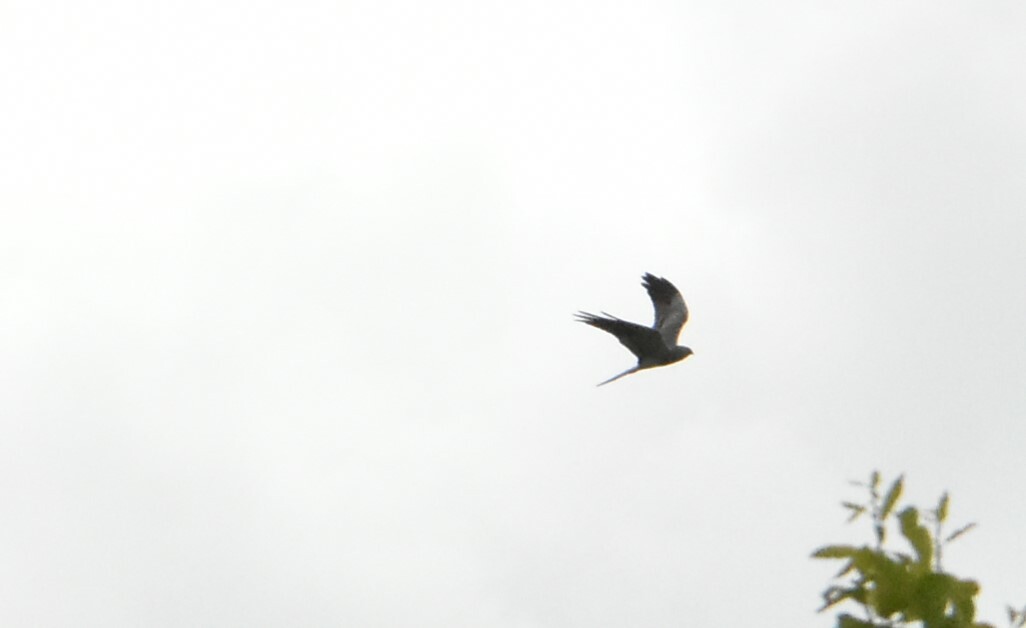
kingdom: Animalia
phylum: Chordata
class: Aves
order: Accipitriformes
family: Accipitridae
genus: Circus
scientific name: Circus pygargus
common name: Montagu's harrier
